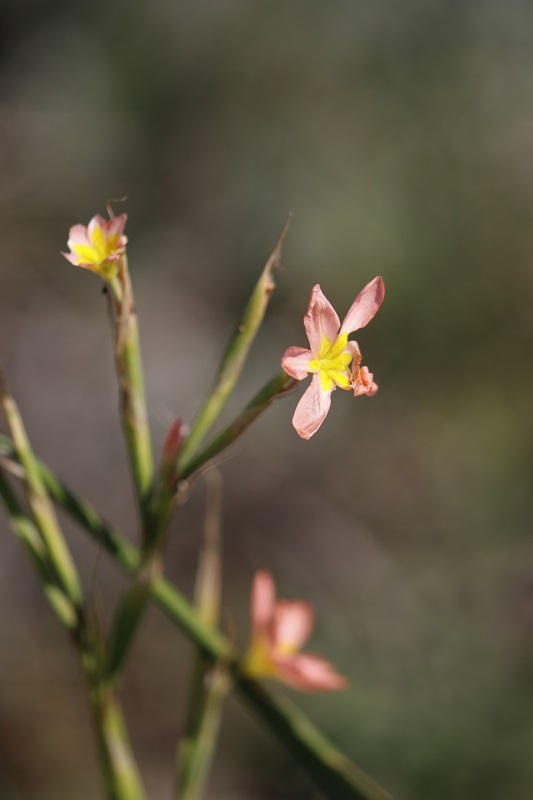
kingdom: Plantae
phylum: Tracheophyta
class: Liliopsida
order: Asparagales
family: Iridaceae
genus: Moraea
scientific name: Moraea miniata
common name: Two-leaf cape-tulip
